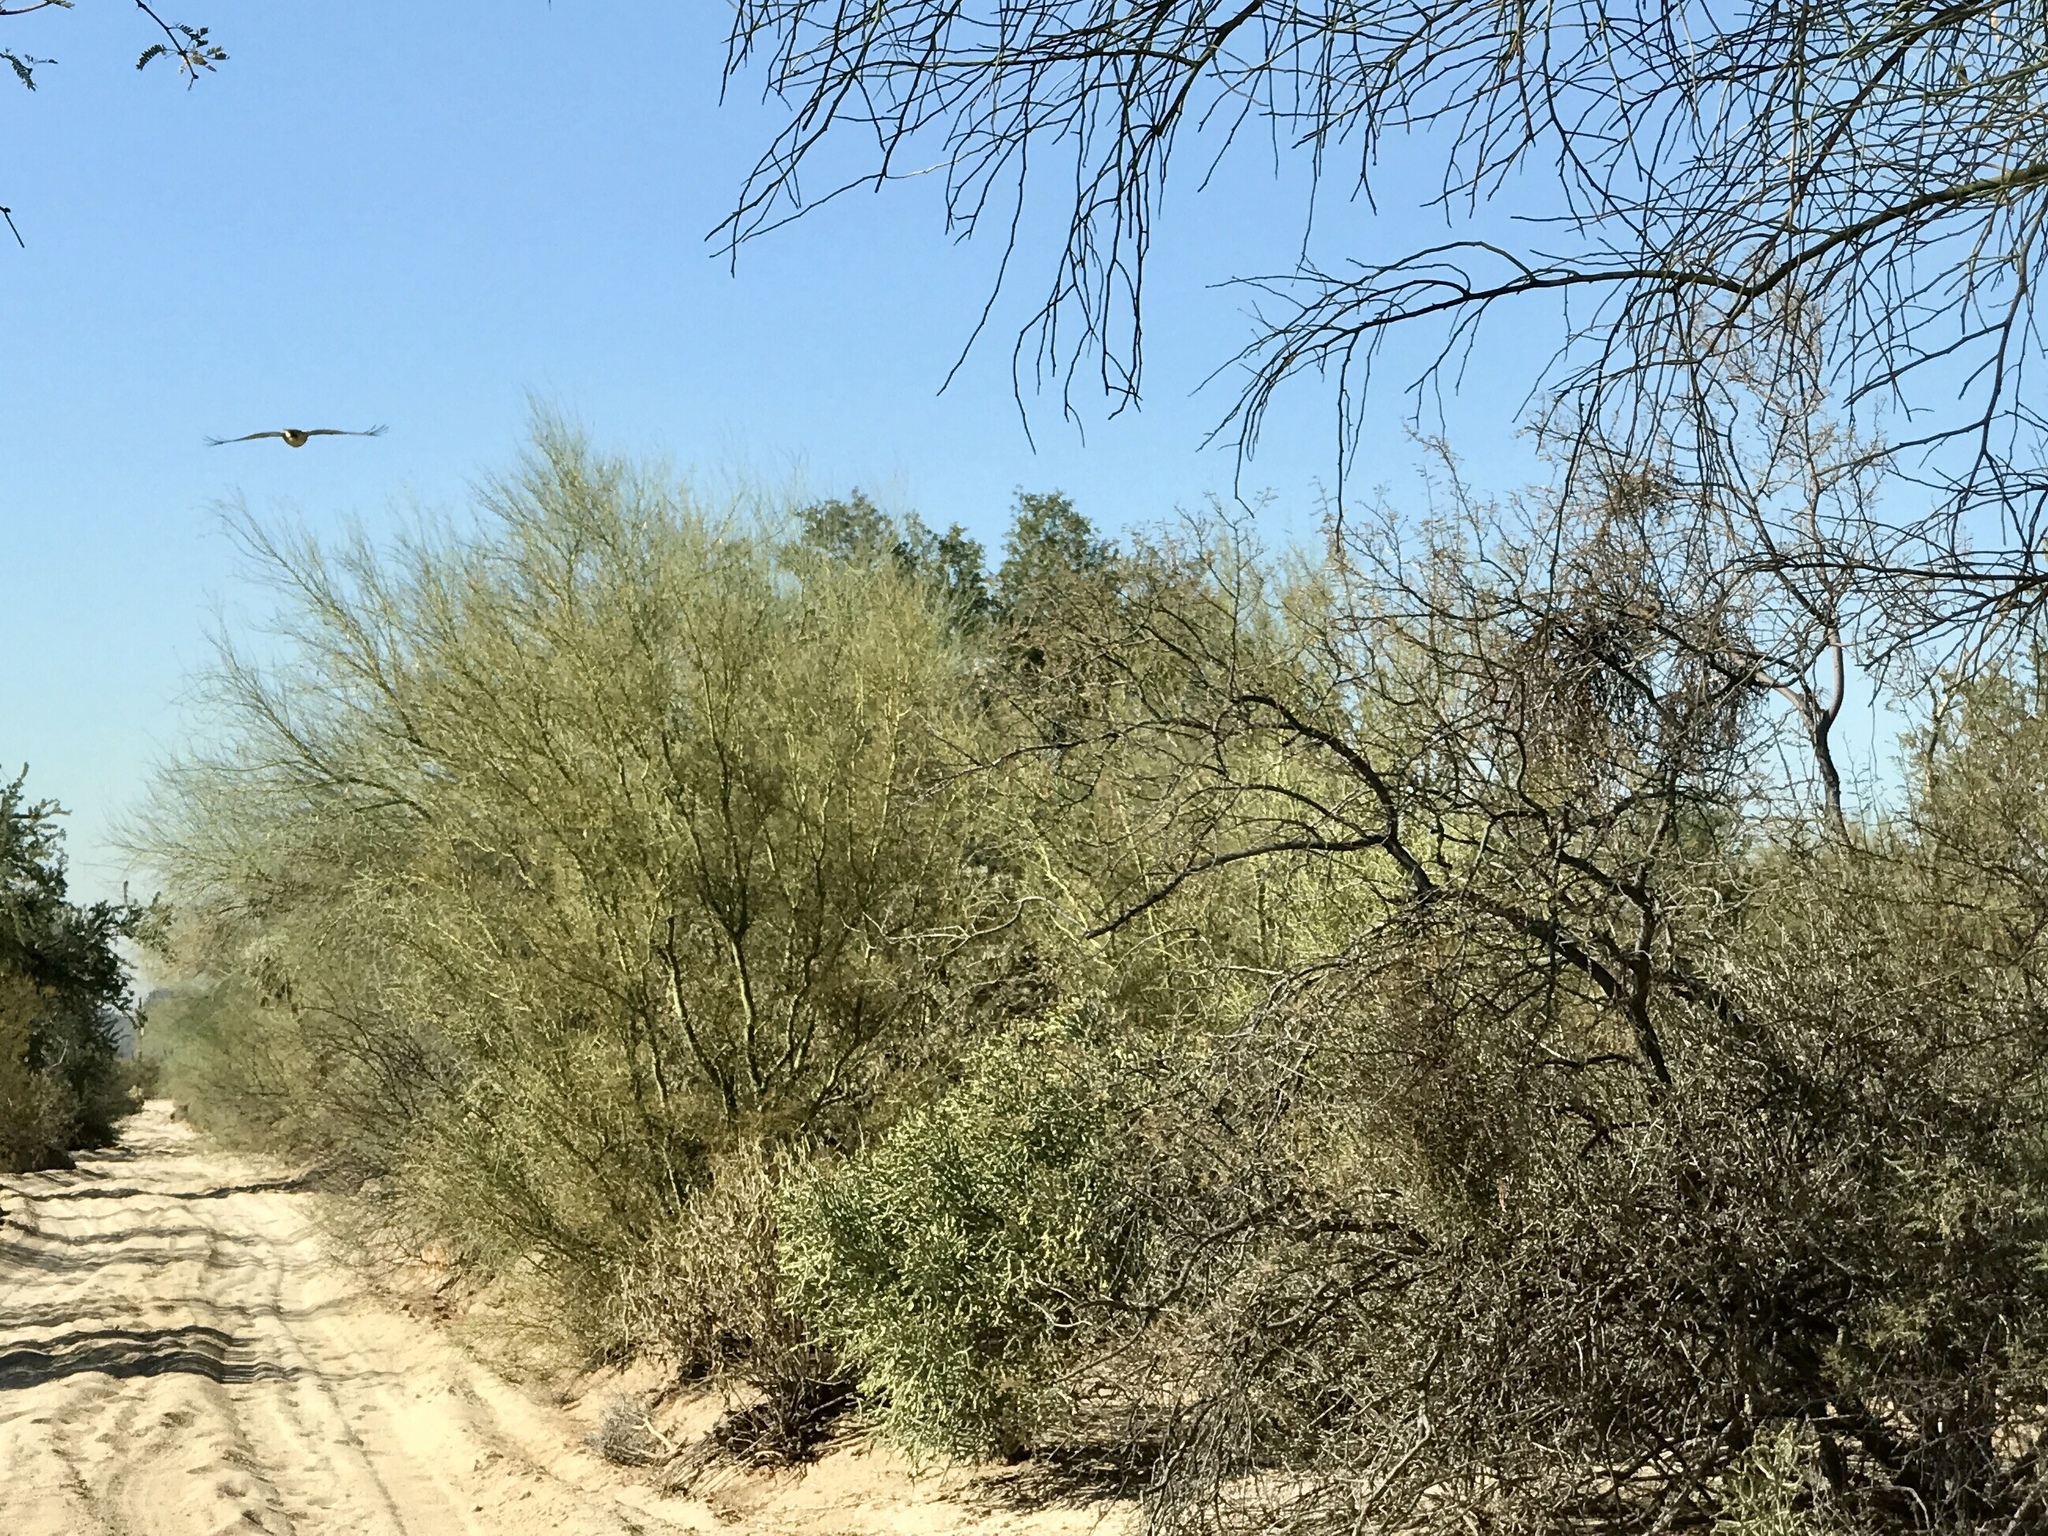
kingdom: Plantae
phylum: Tracheophyta
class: Magnoliopsida
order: Fabales
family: Fabaceae
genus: Parkinsonia
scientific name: Parkinsonia microphylla
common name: Yellow paloverde
